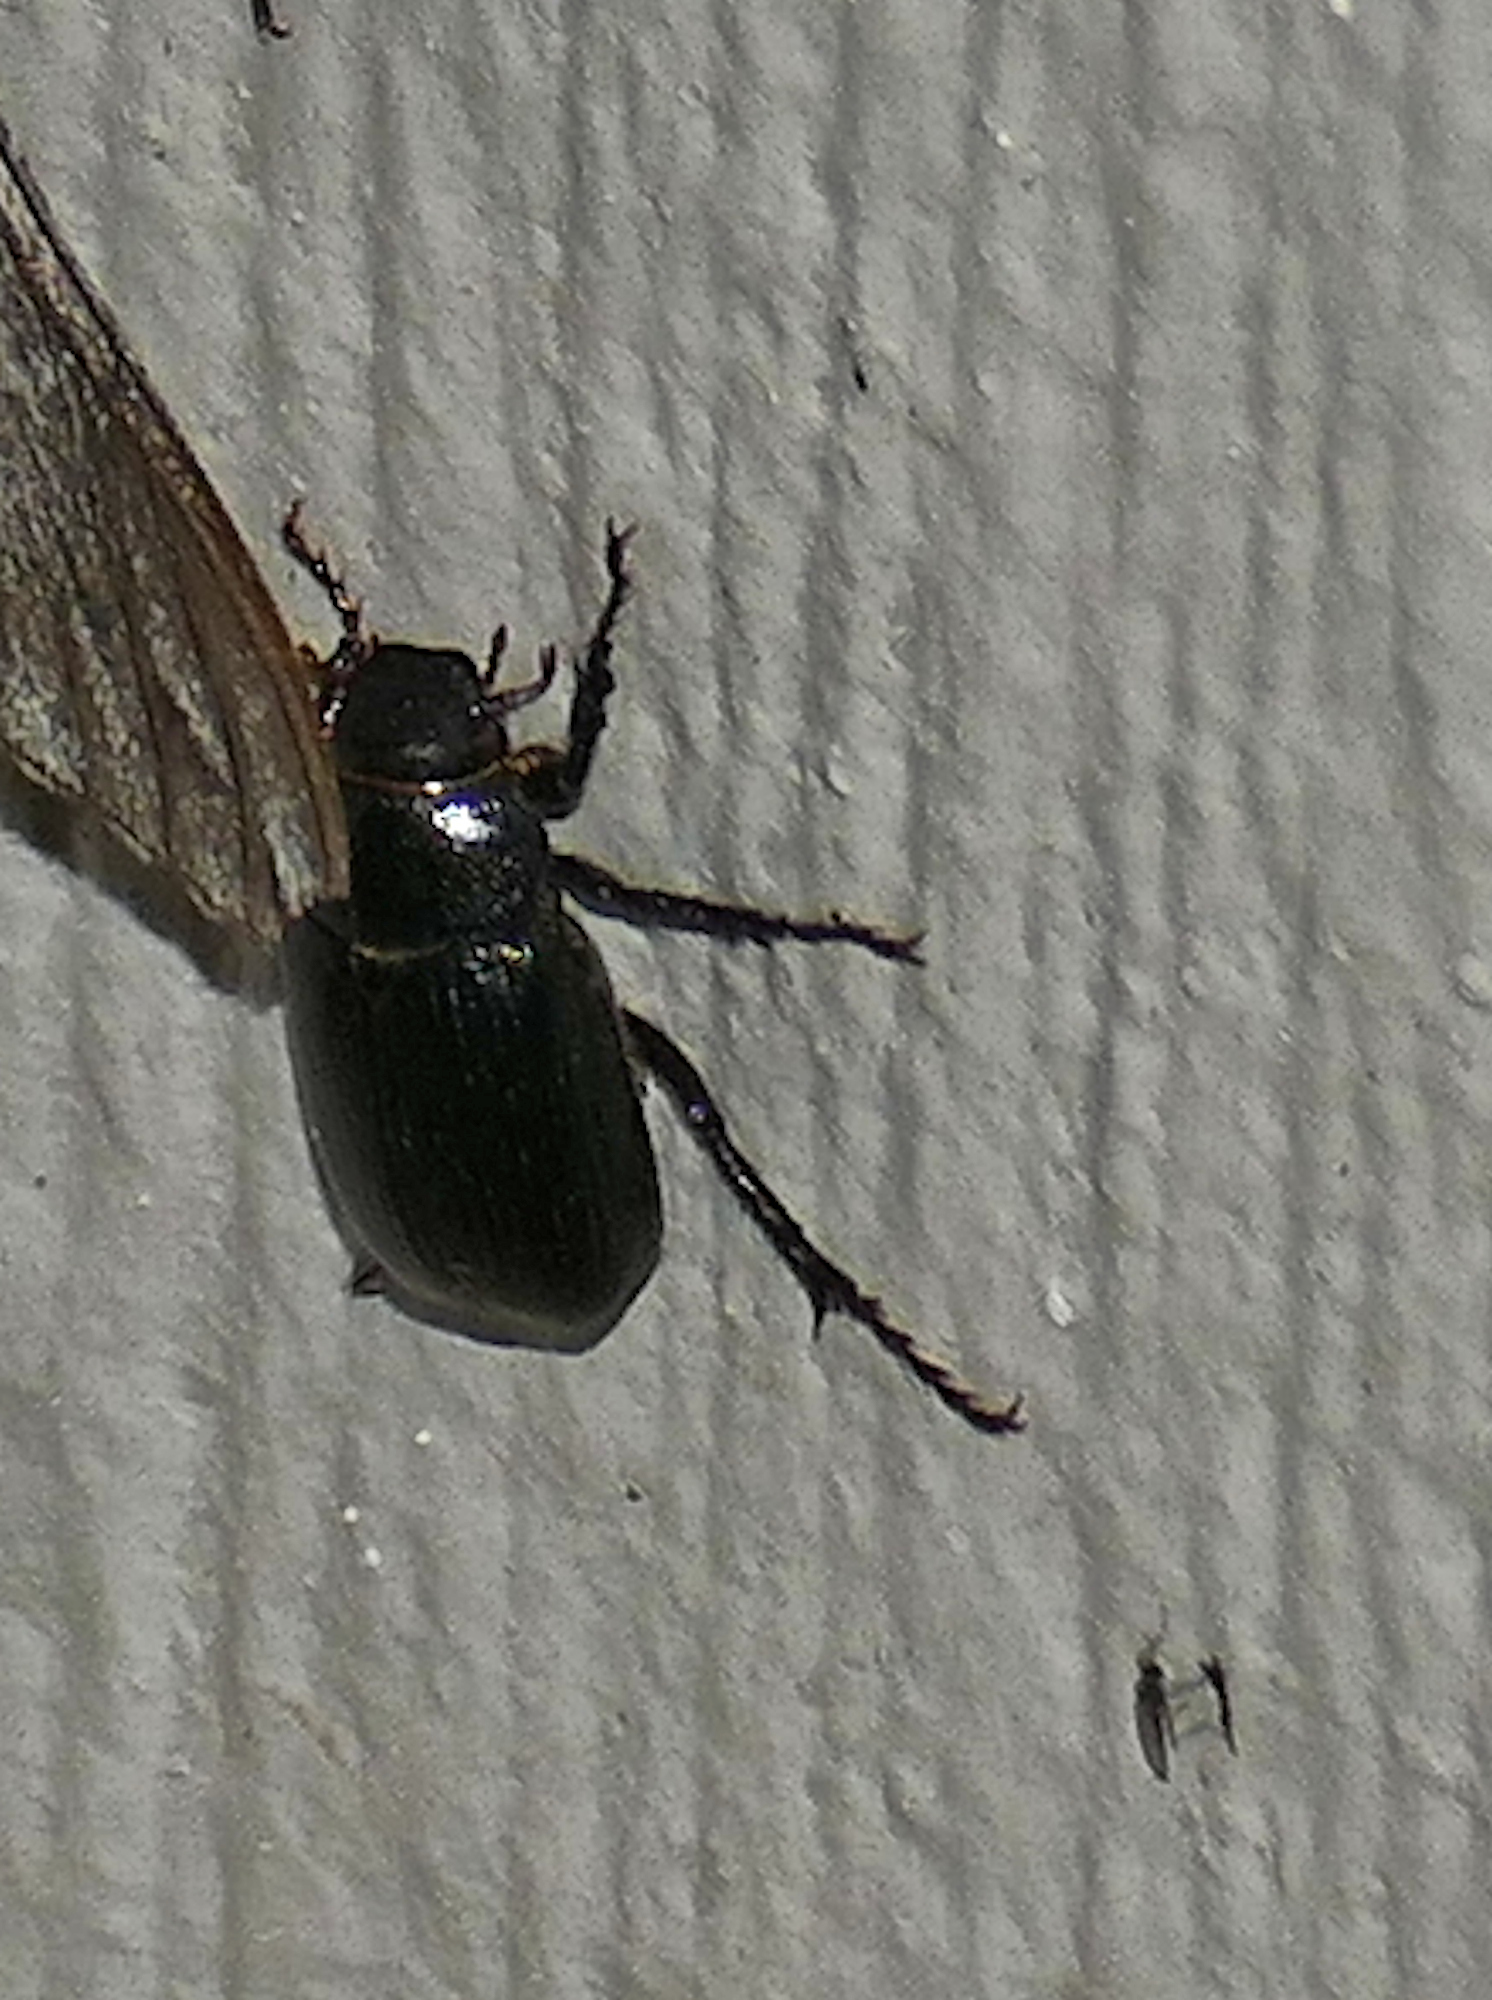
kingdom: Animalia
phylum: Arthropoda
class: Insecta
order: Coleoptera
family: Scarabaeidae
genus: Diplotaxis
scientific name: Diplotaxis
